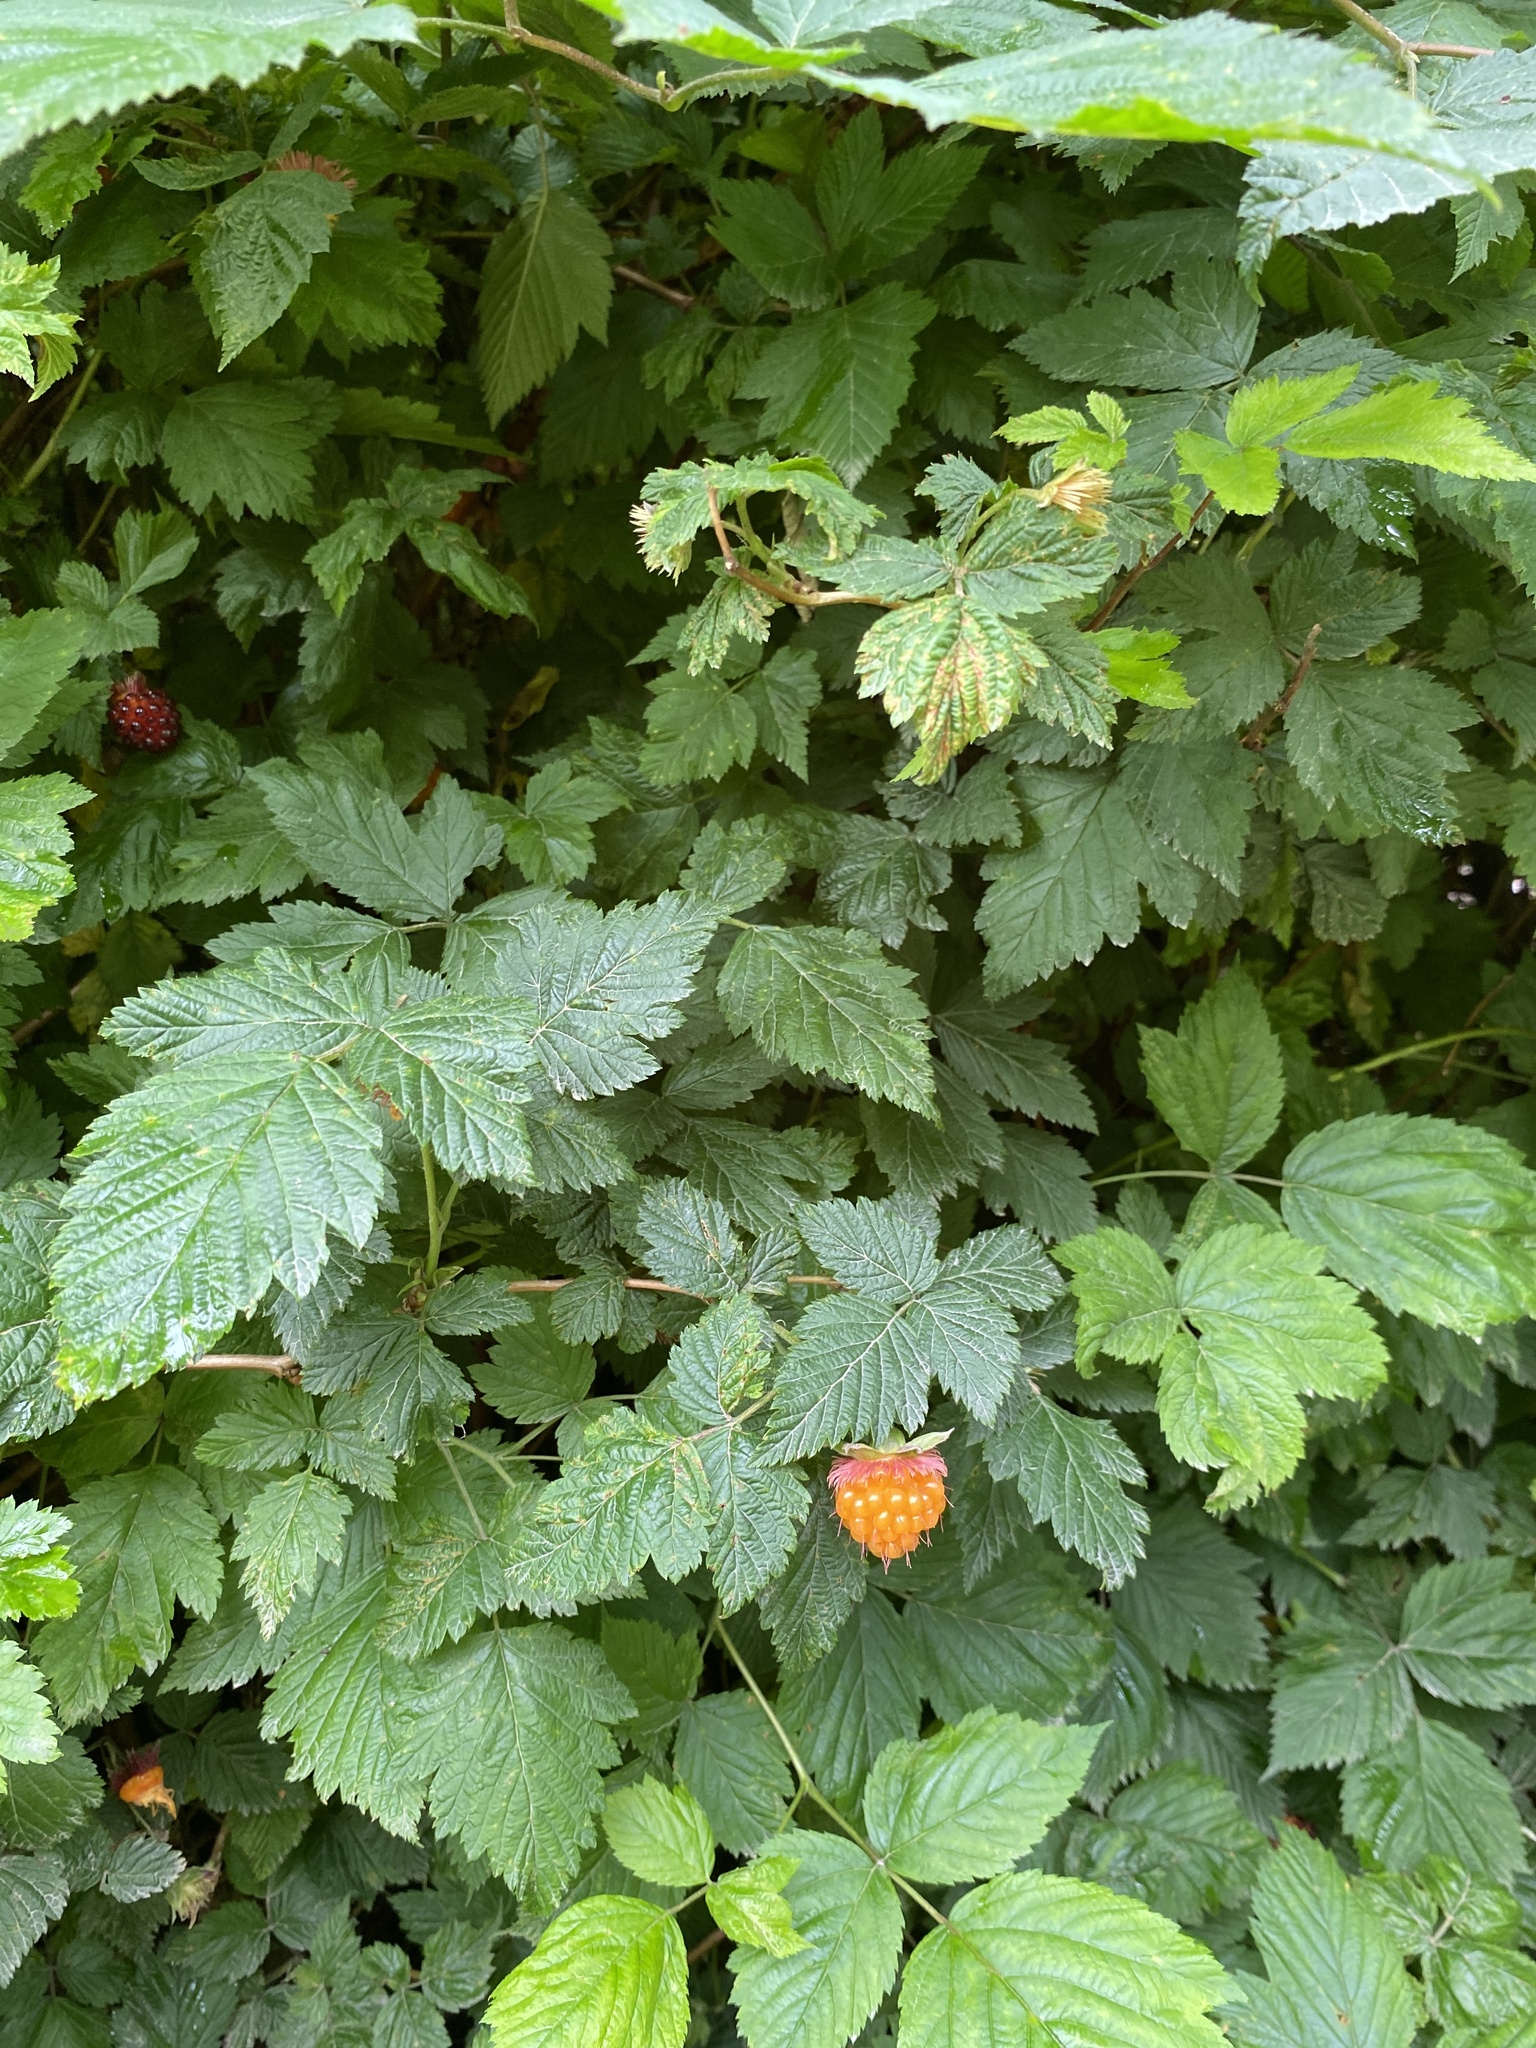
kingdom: Plantae
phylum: Tracheophyta
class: Magnoliopsida
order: Rosales
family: Rosaceae
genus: Rubus
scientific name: Rubus spectabilis
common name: Salmonberry
